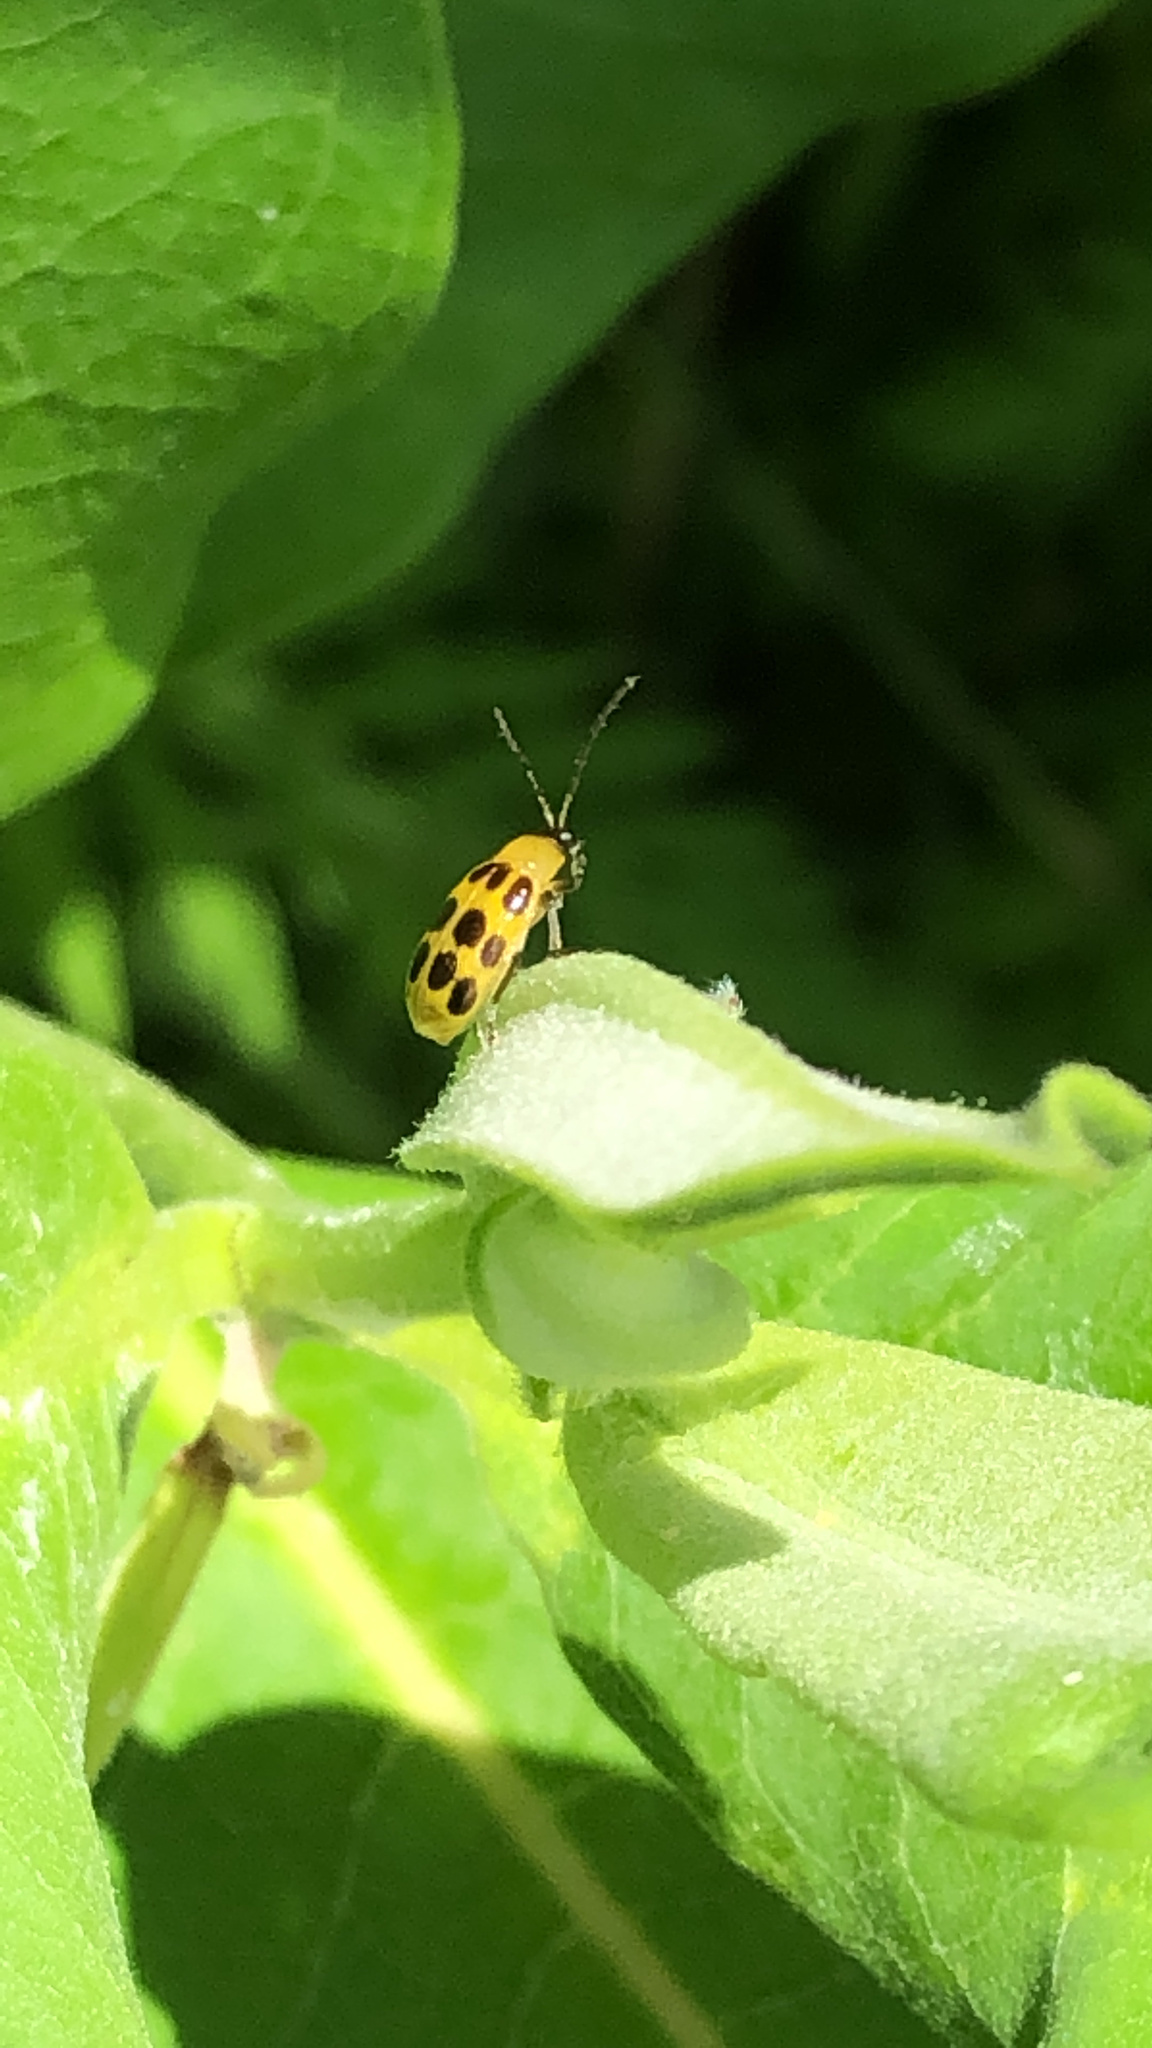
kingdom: Animalia
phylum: Arthropoda
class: Insecta
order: Coleoptera
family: Chrysomelidae
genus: Diabrotica
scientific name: Diabrotica undecimpunctata
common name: Spotted cucumber beetle
